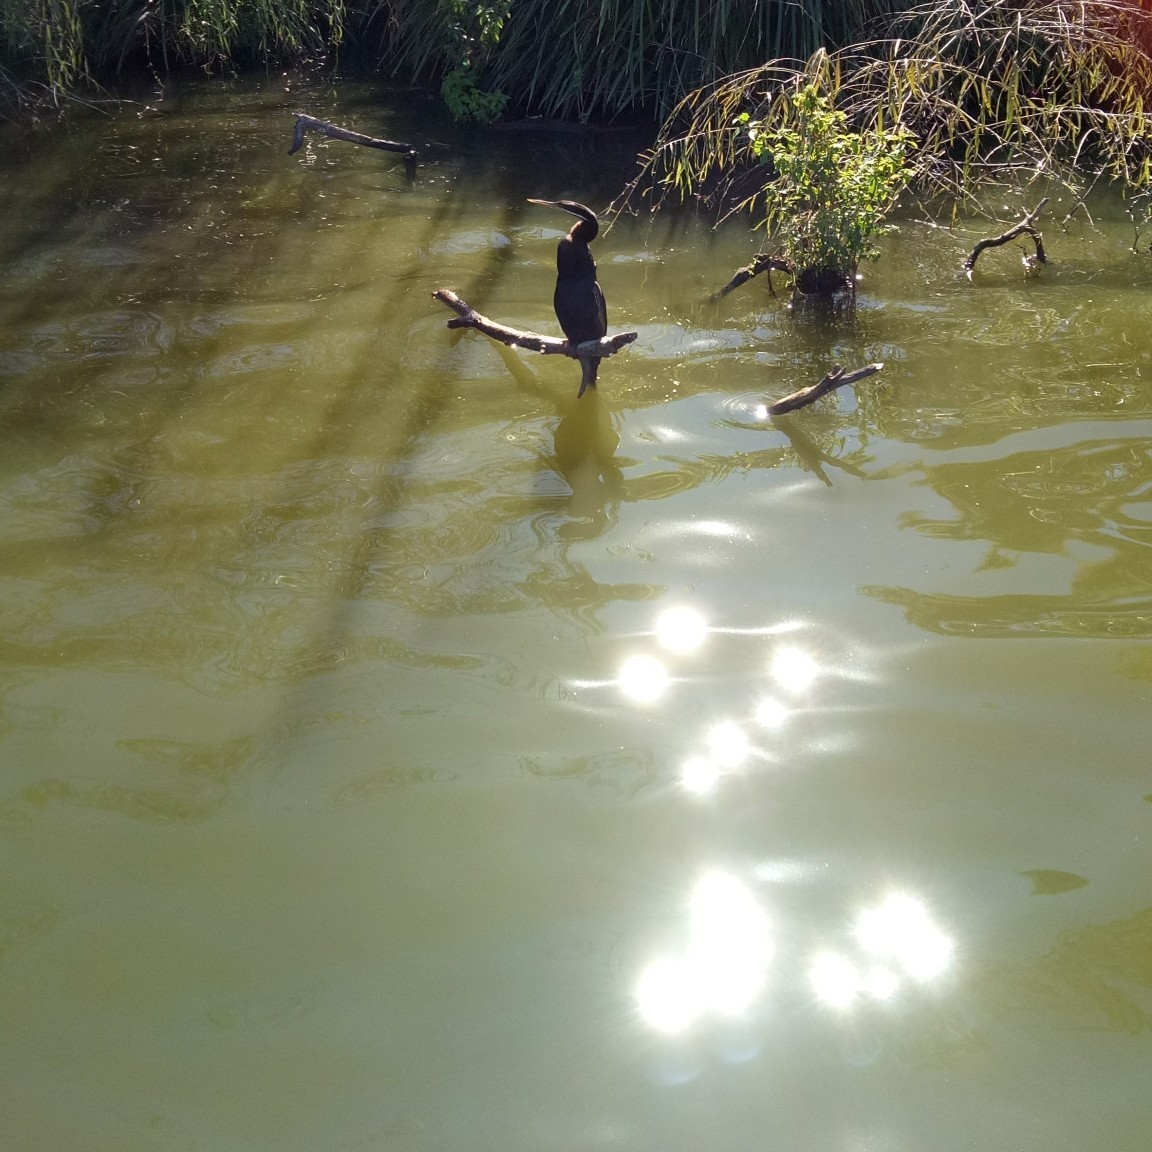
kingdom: Animalia
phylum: Chordata
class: Aves
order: Suliformes
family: Anhingidae
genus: Anhinga
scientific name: Anhinga novaehollandiae
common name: Australasian darter
